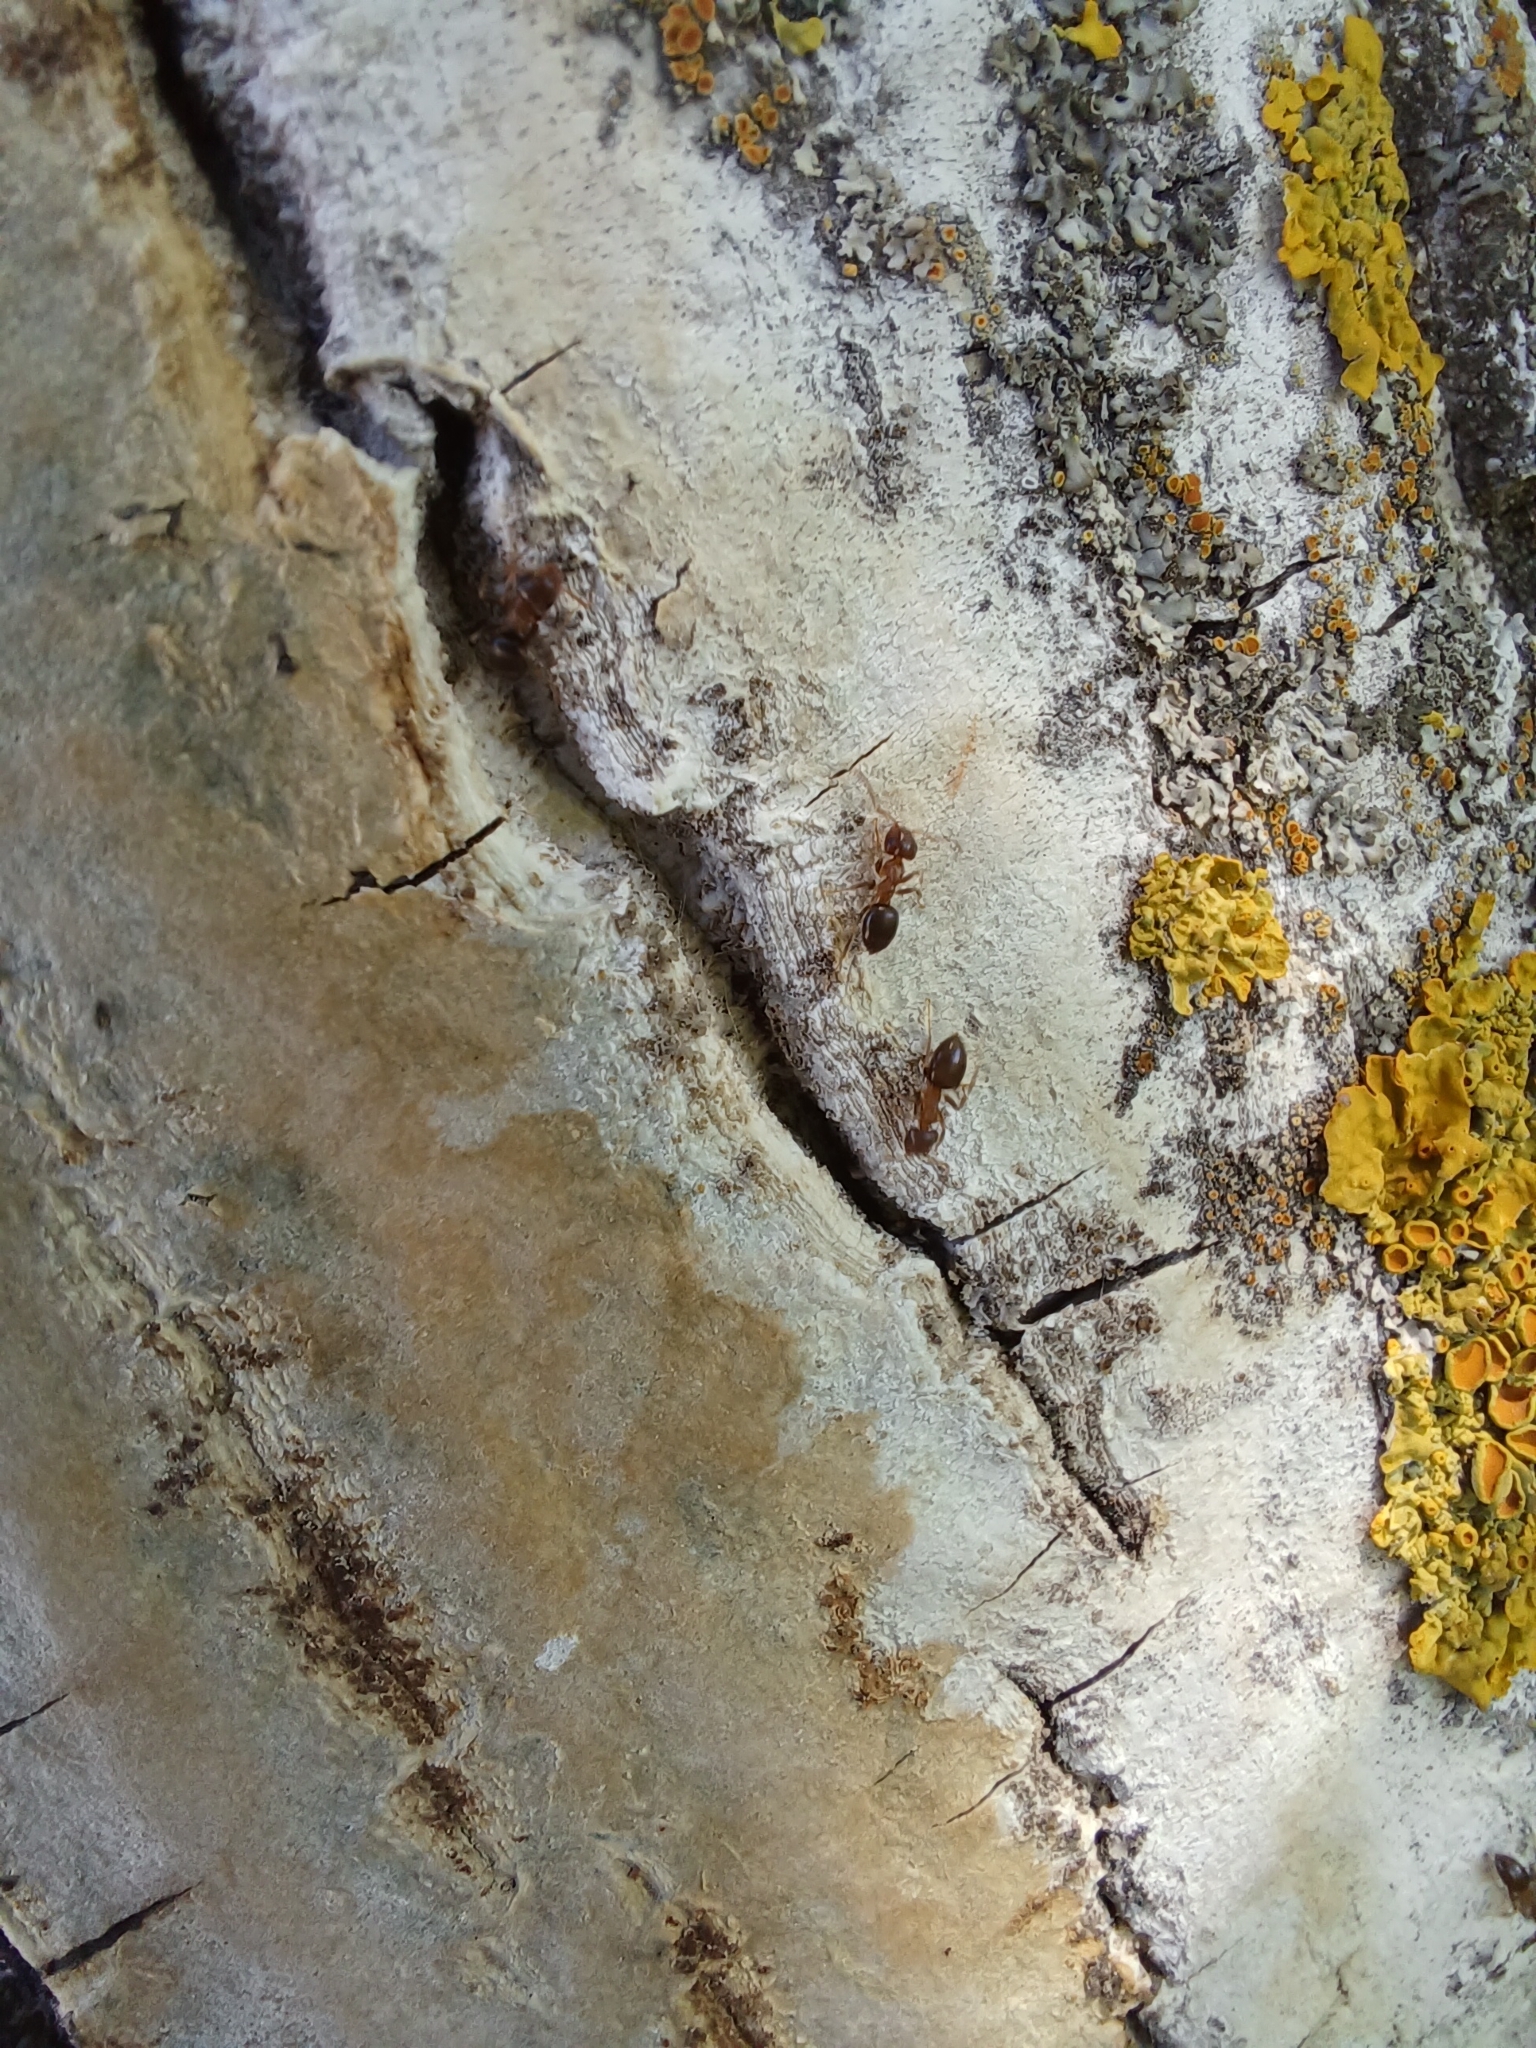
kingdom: Animalia
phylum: Arthropoda
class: Insecta
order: Hymenoptera
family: Formicidae
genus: Lasius
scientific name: Lasius brunneus
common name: Brown ant
